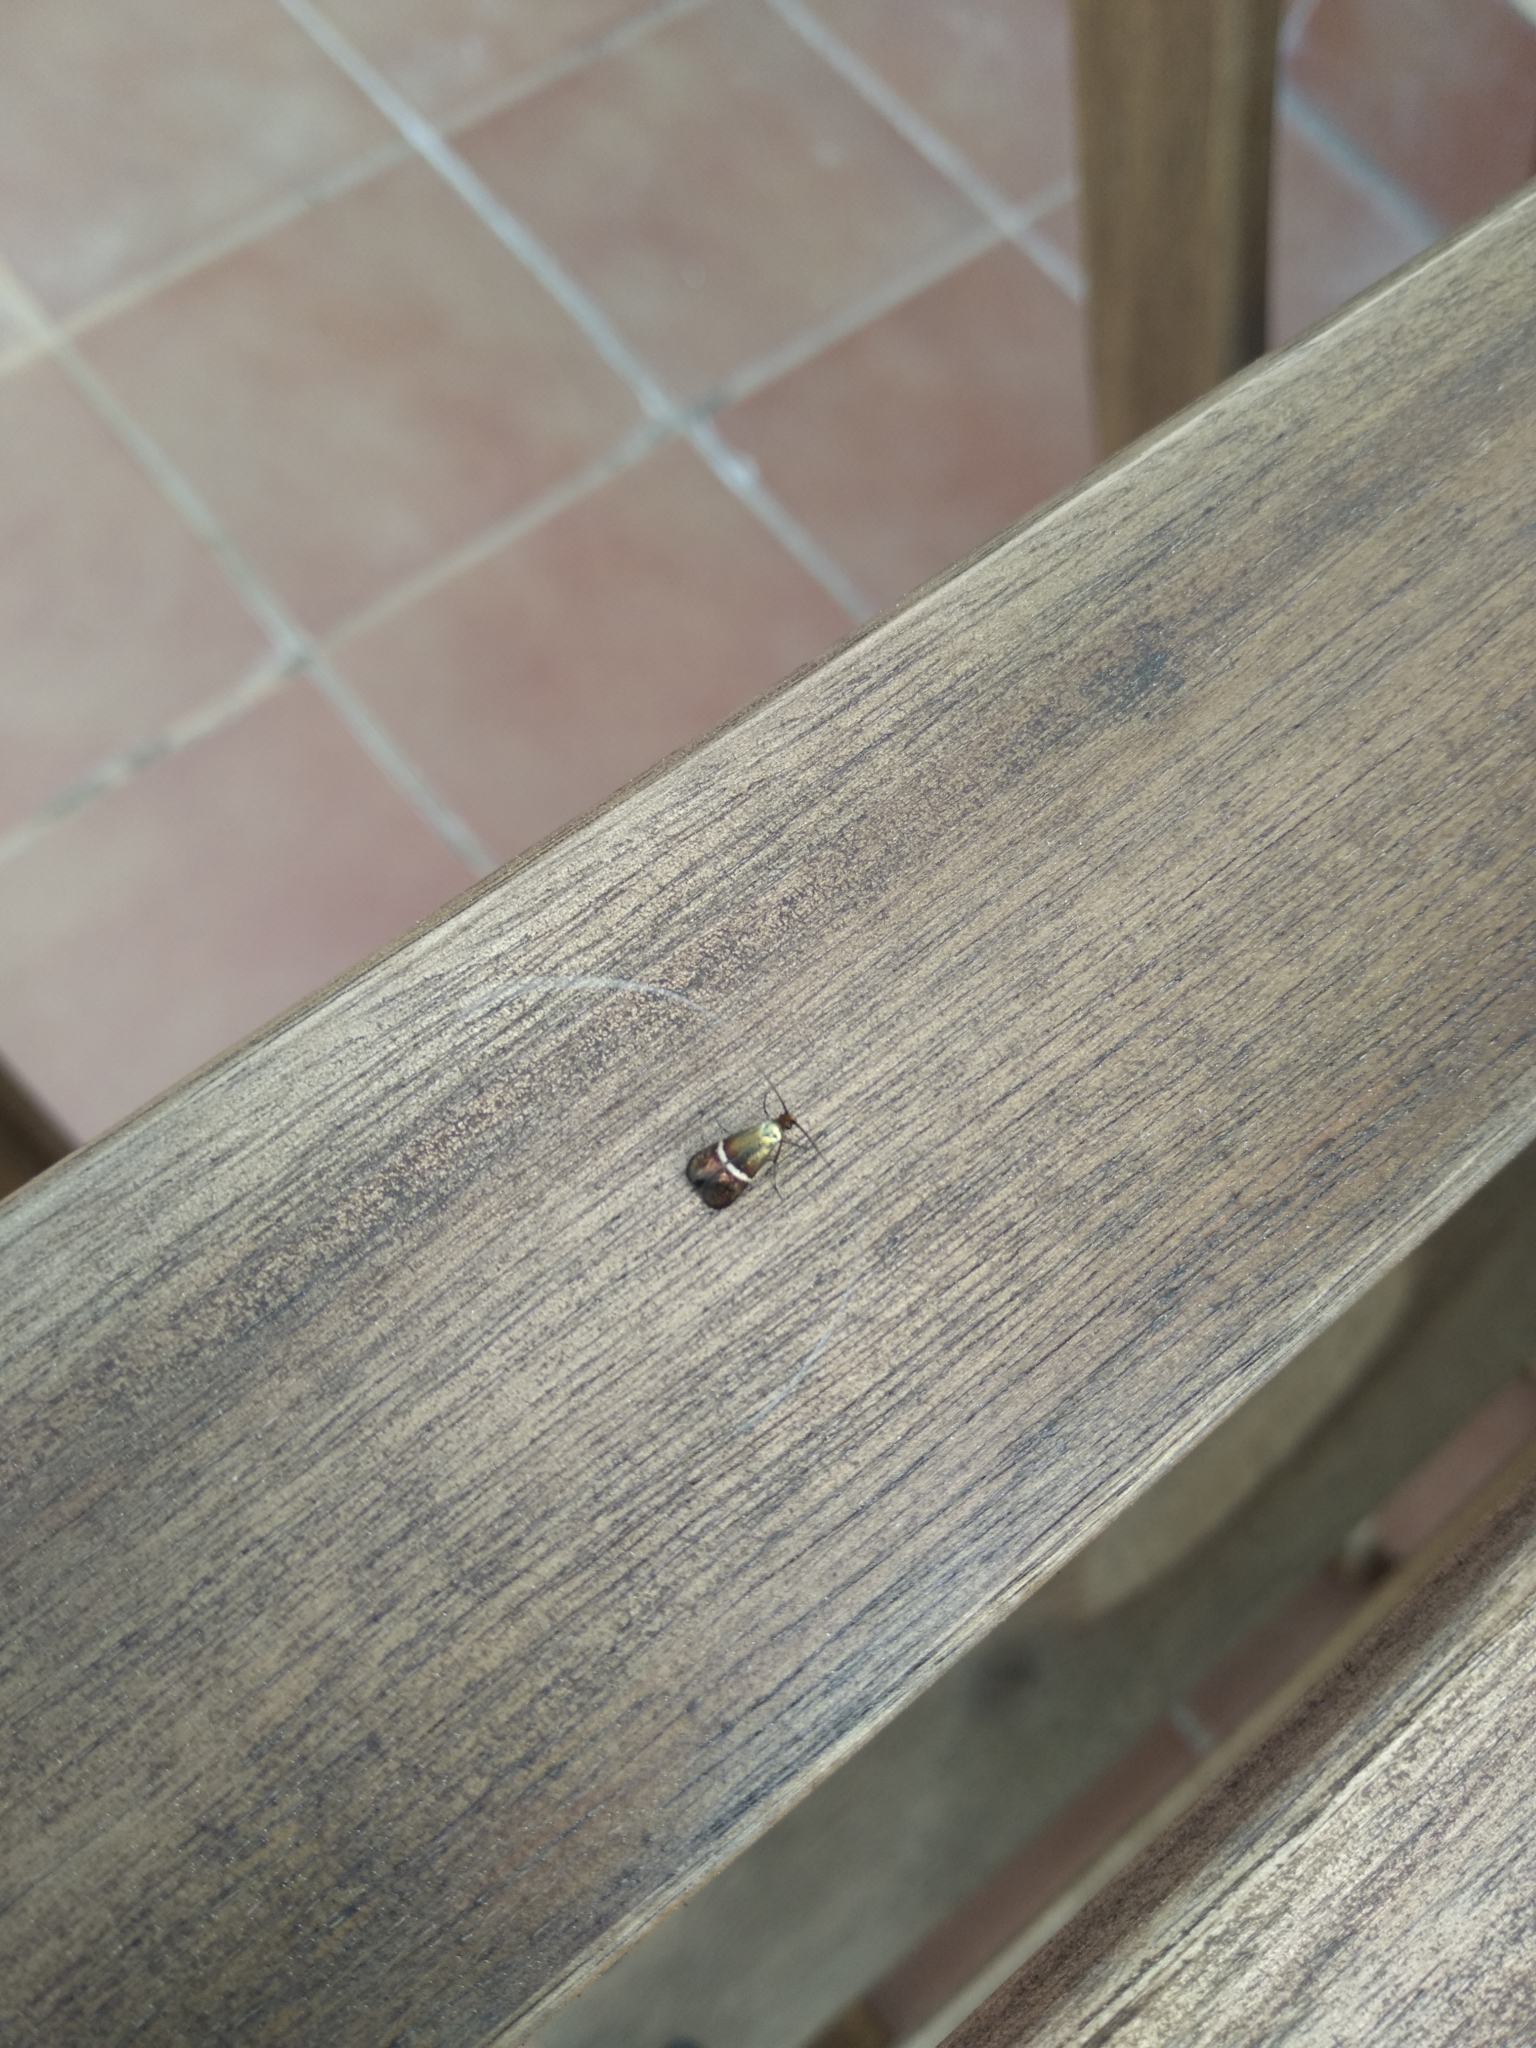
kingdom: Animalia
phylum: Arthropoda
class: Insecta
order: Lepidoptera
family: Adelidae
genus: Adela
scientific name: Adela australis
